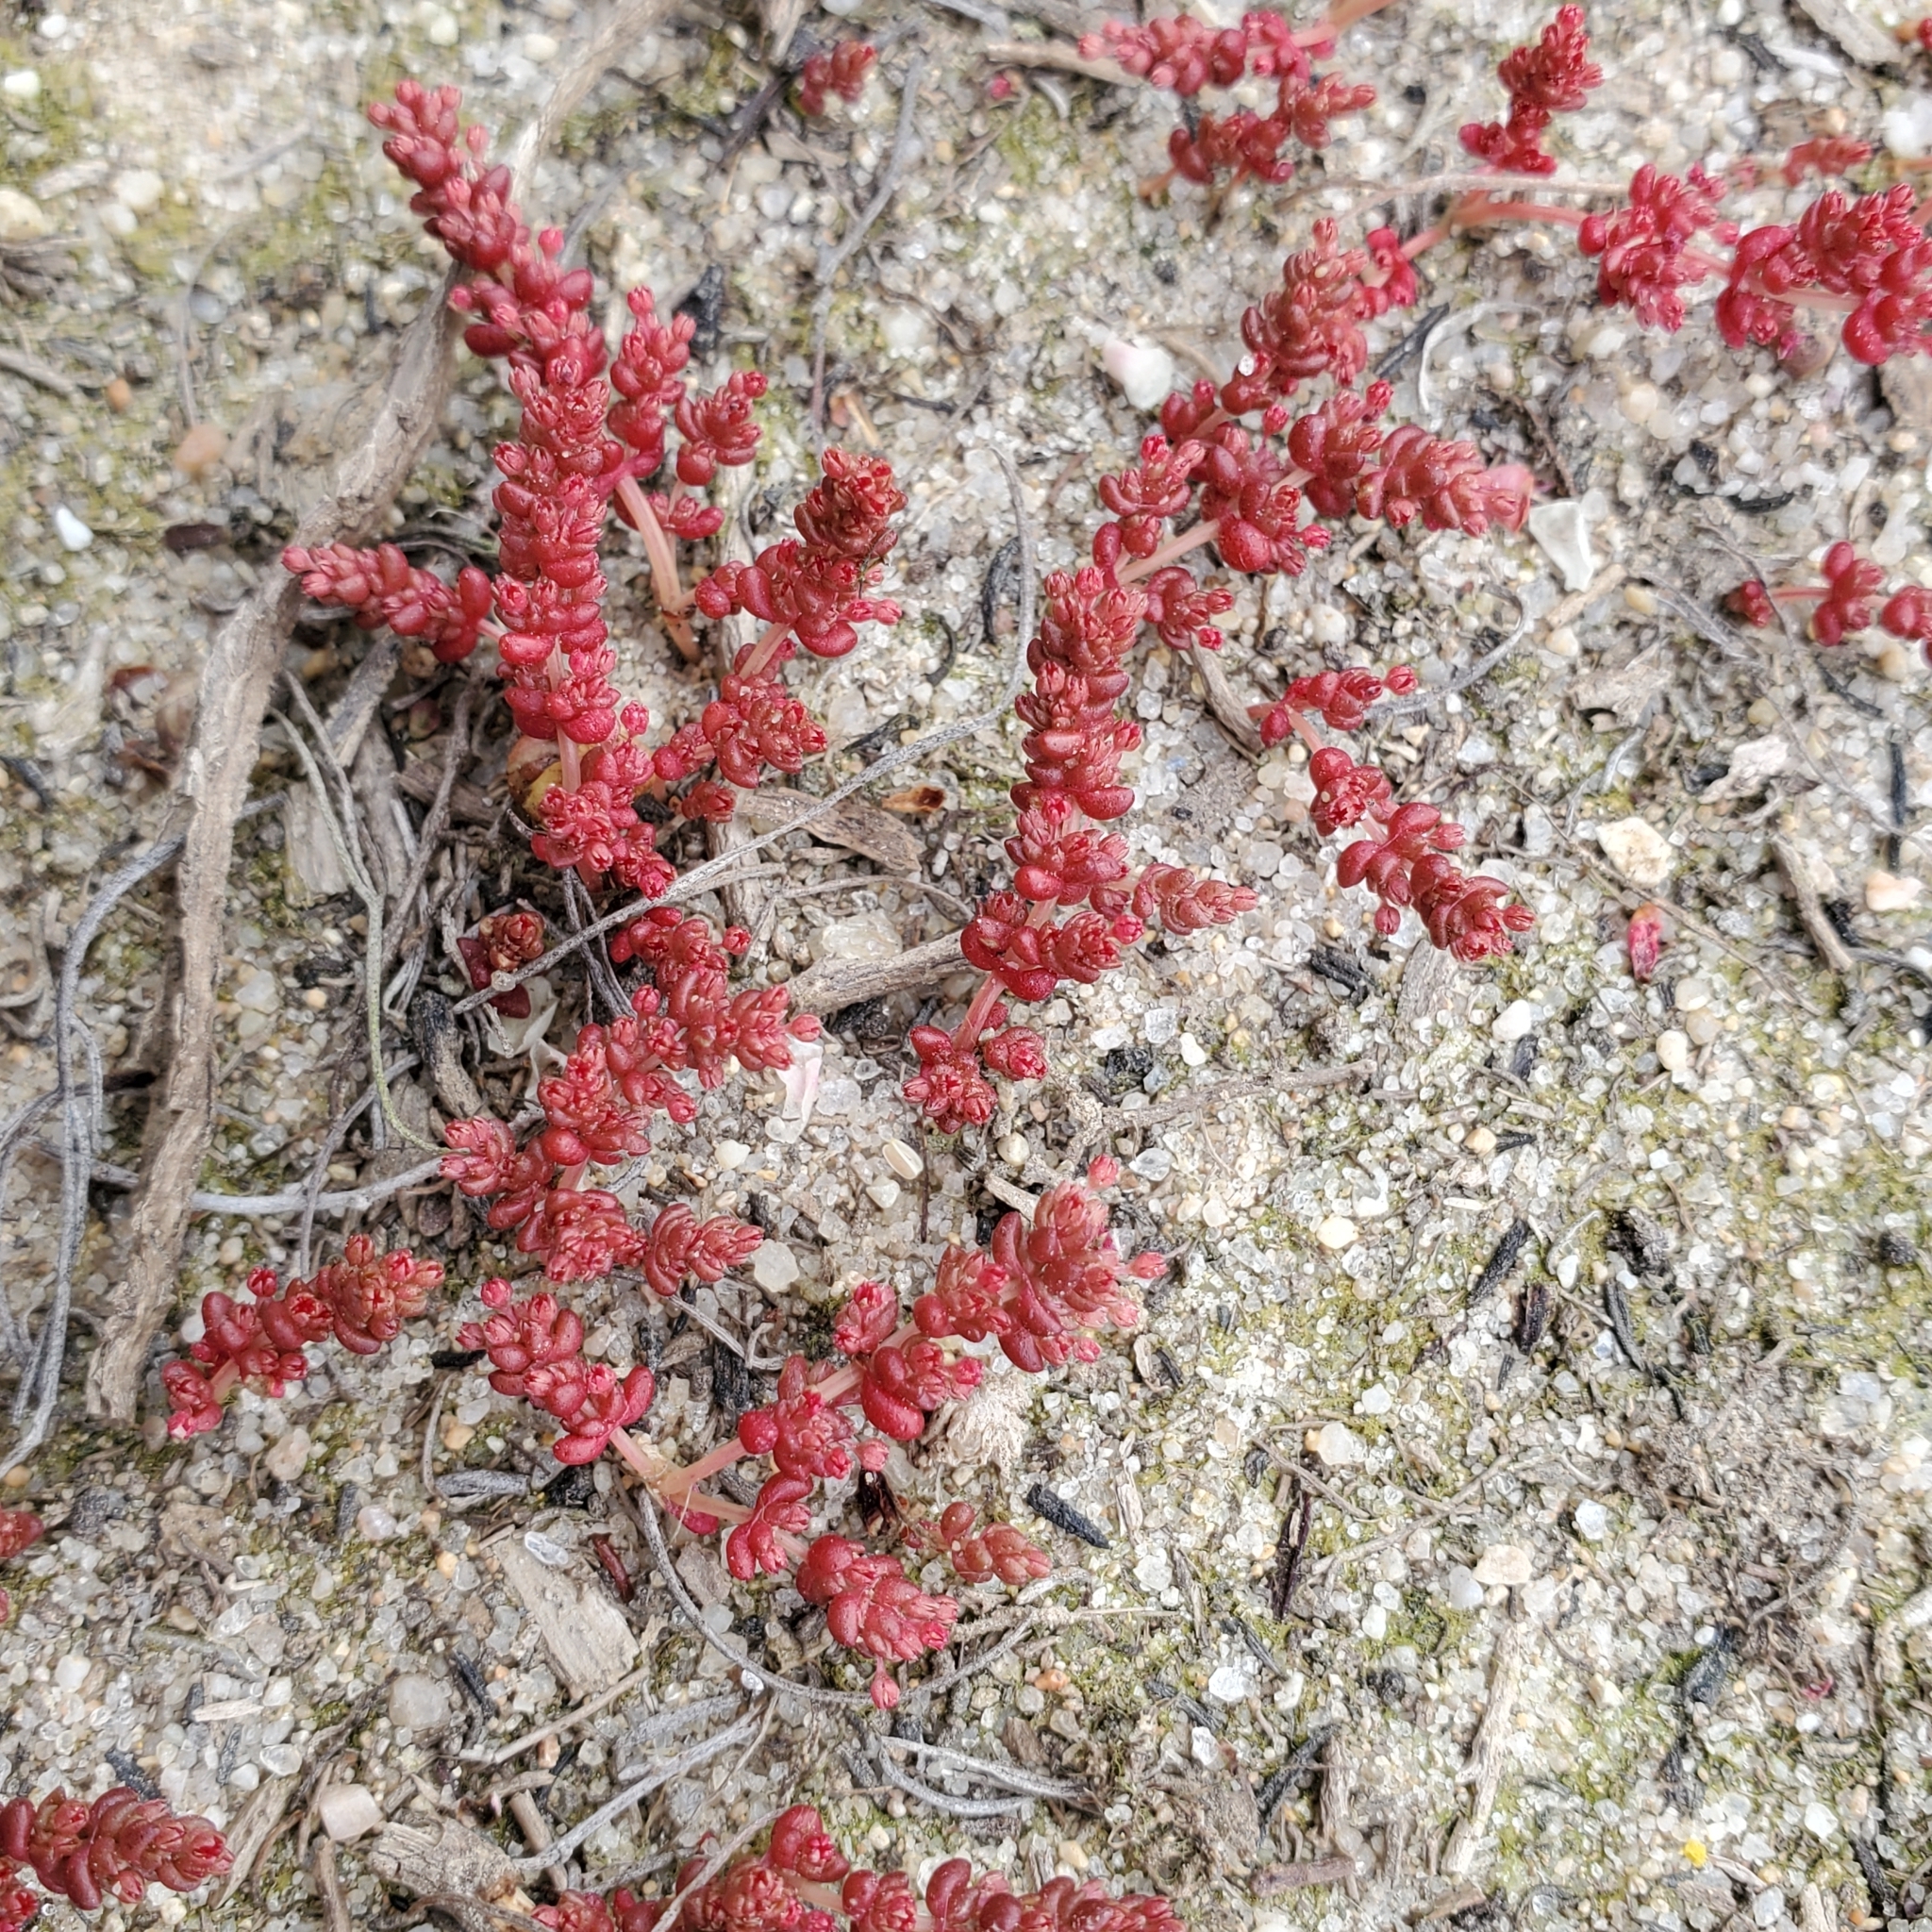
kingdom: Plantae
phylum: Tracheophyta
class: Magnoliopsida
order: Saxifragales
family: Crassulaceae
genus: Crassula
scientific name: Crassula connata
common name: Erect pygmyweed
